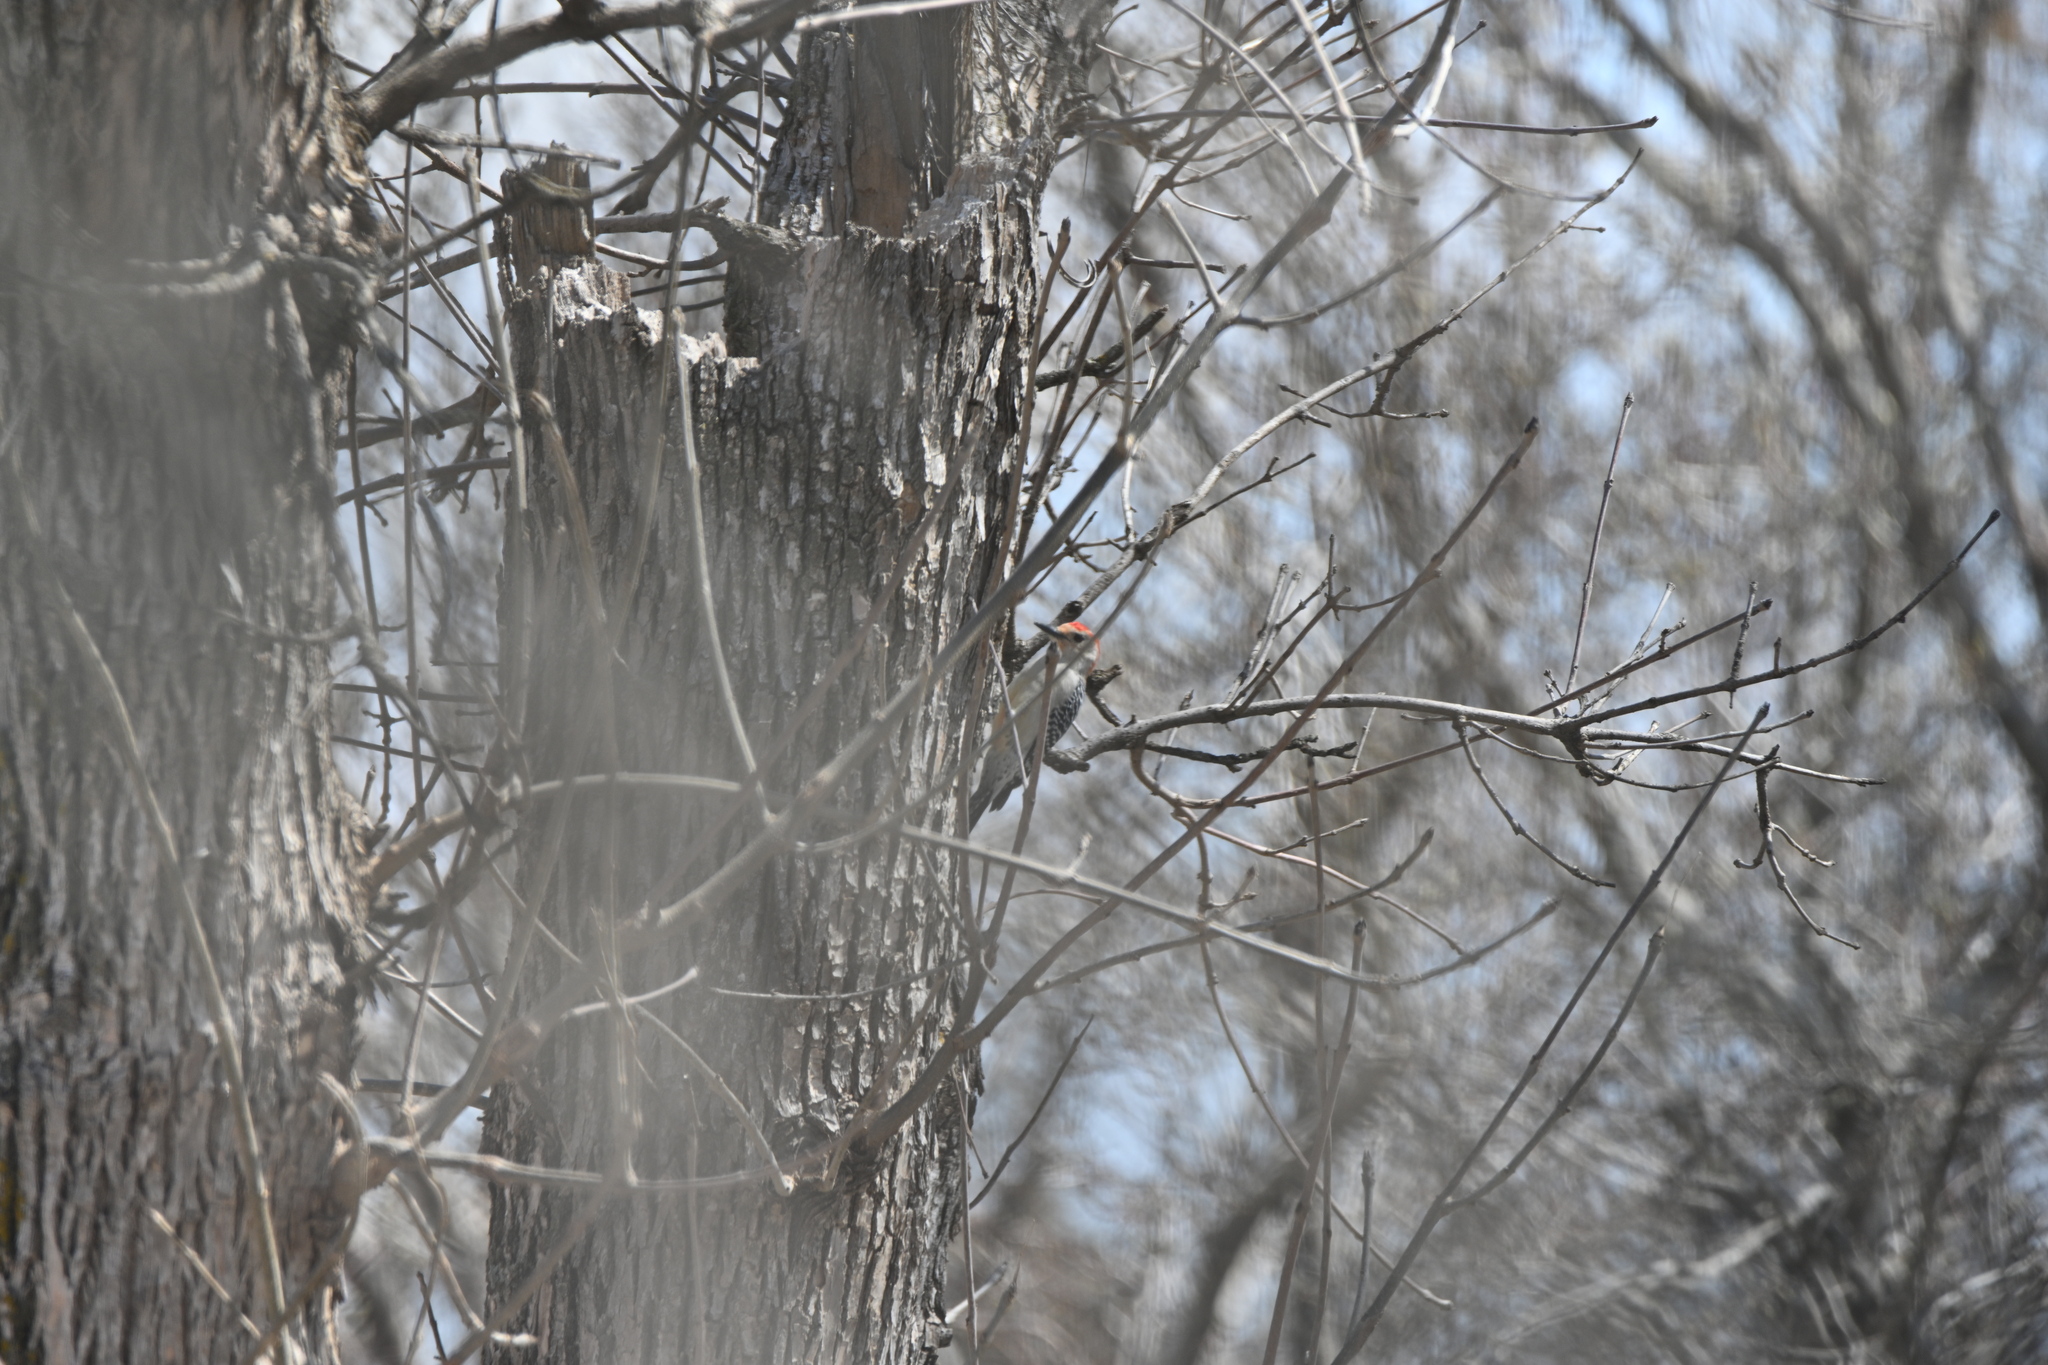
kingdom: Animalia
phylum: Chordata
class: Aves
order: Piciformes
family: Picidae
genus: Melanerpes
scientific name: Melanerpes carolinus
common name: Red-bellied woodpecker
